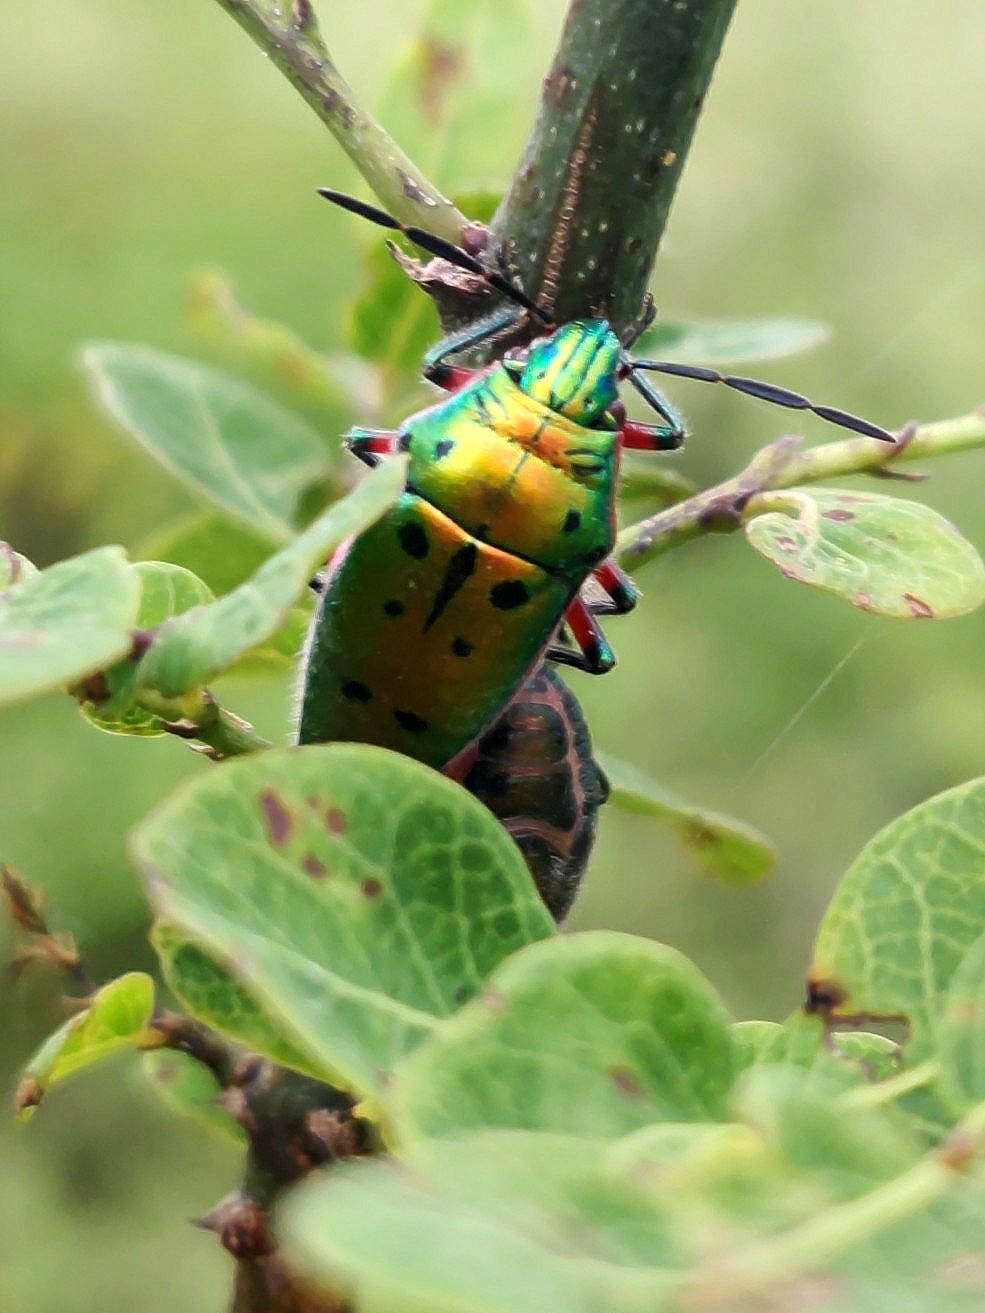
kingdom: Animalia
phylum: Arthropoda
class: Insecta
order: Hemiptera
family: Scutelleridae
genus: Scutellera
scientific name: Scutellera perplexa
